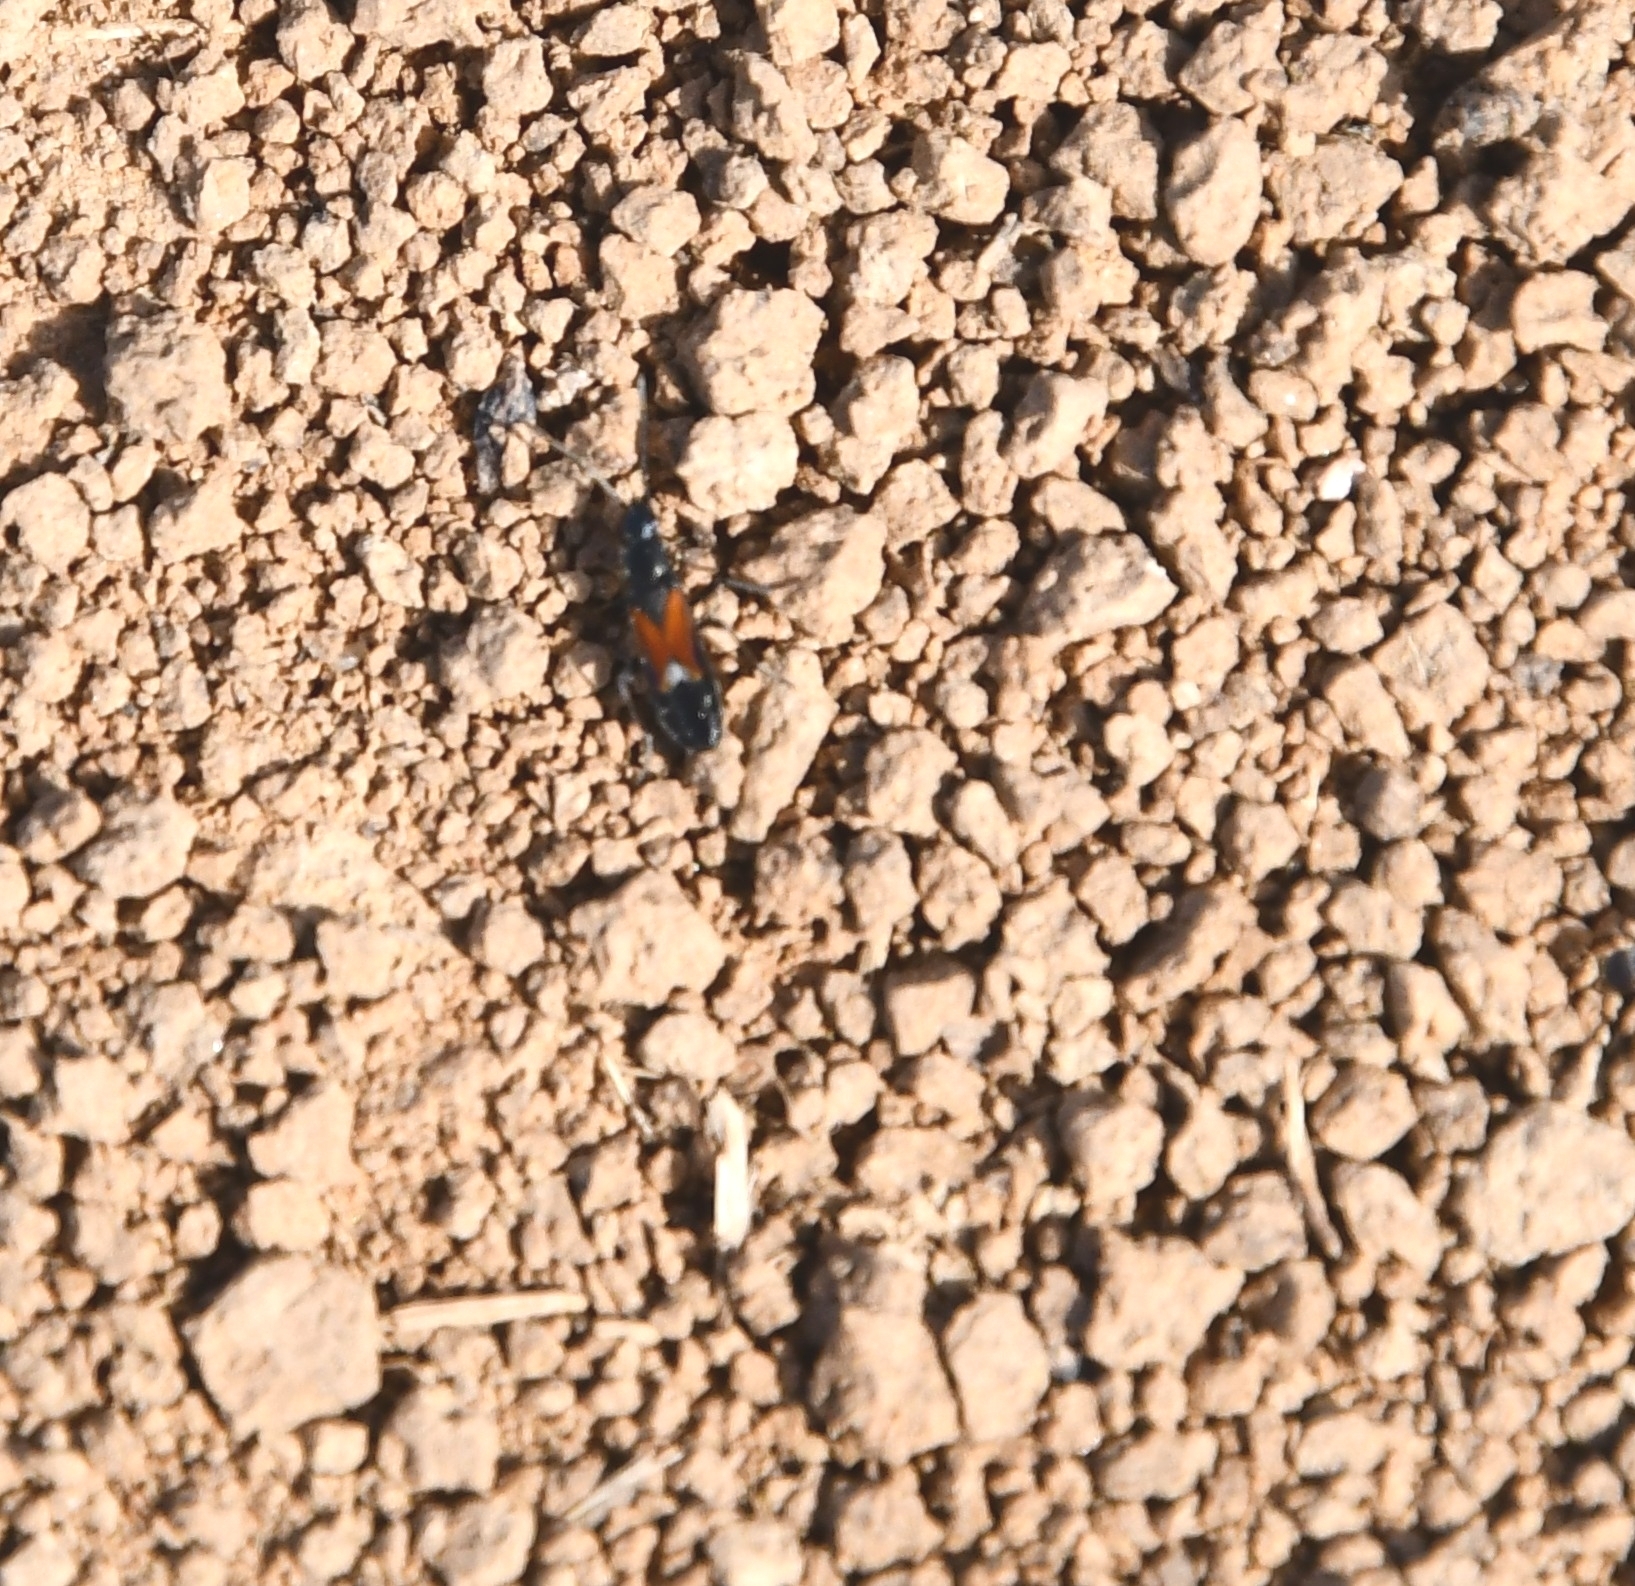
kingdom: Animalia
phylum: Arthropoda
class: Insecta
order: Hemiptera
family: Rhyparochromidae
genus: Pterotmetus
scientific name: Pterotmetus staphyliniformis
